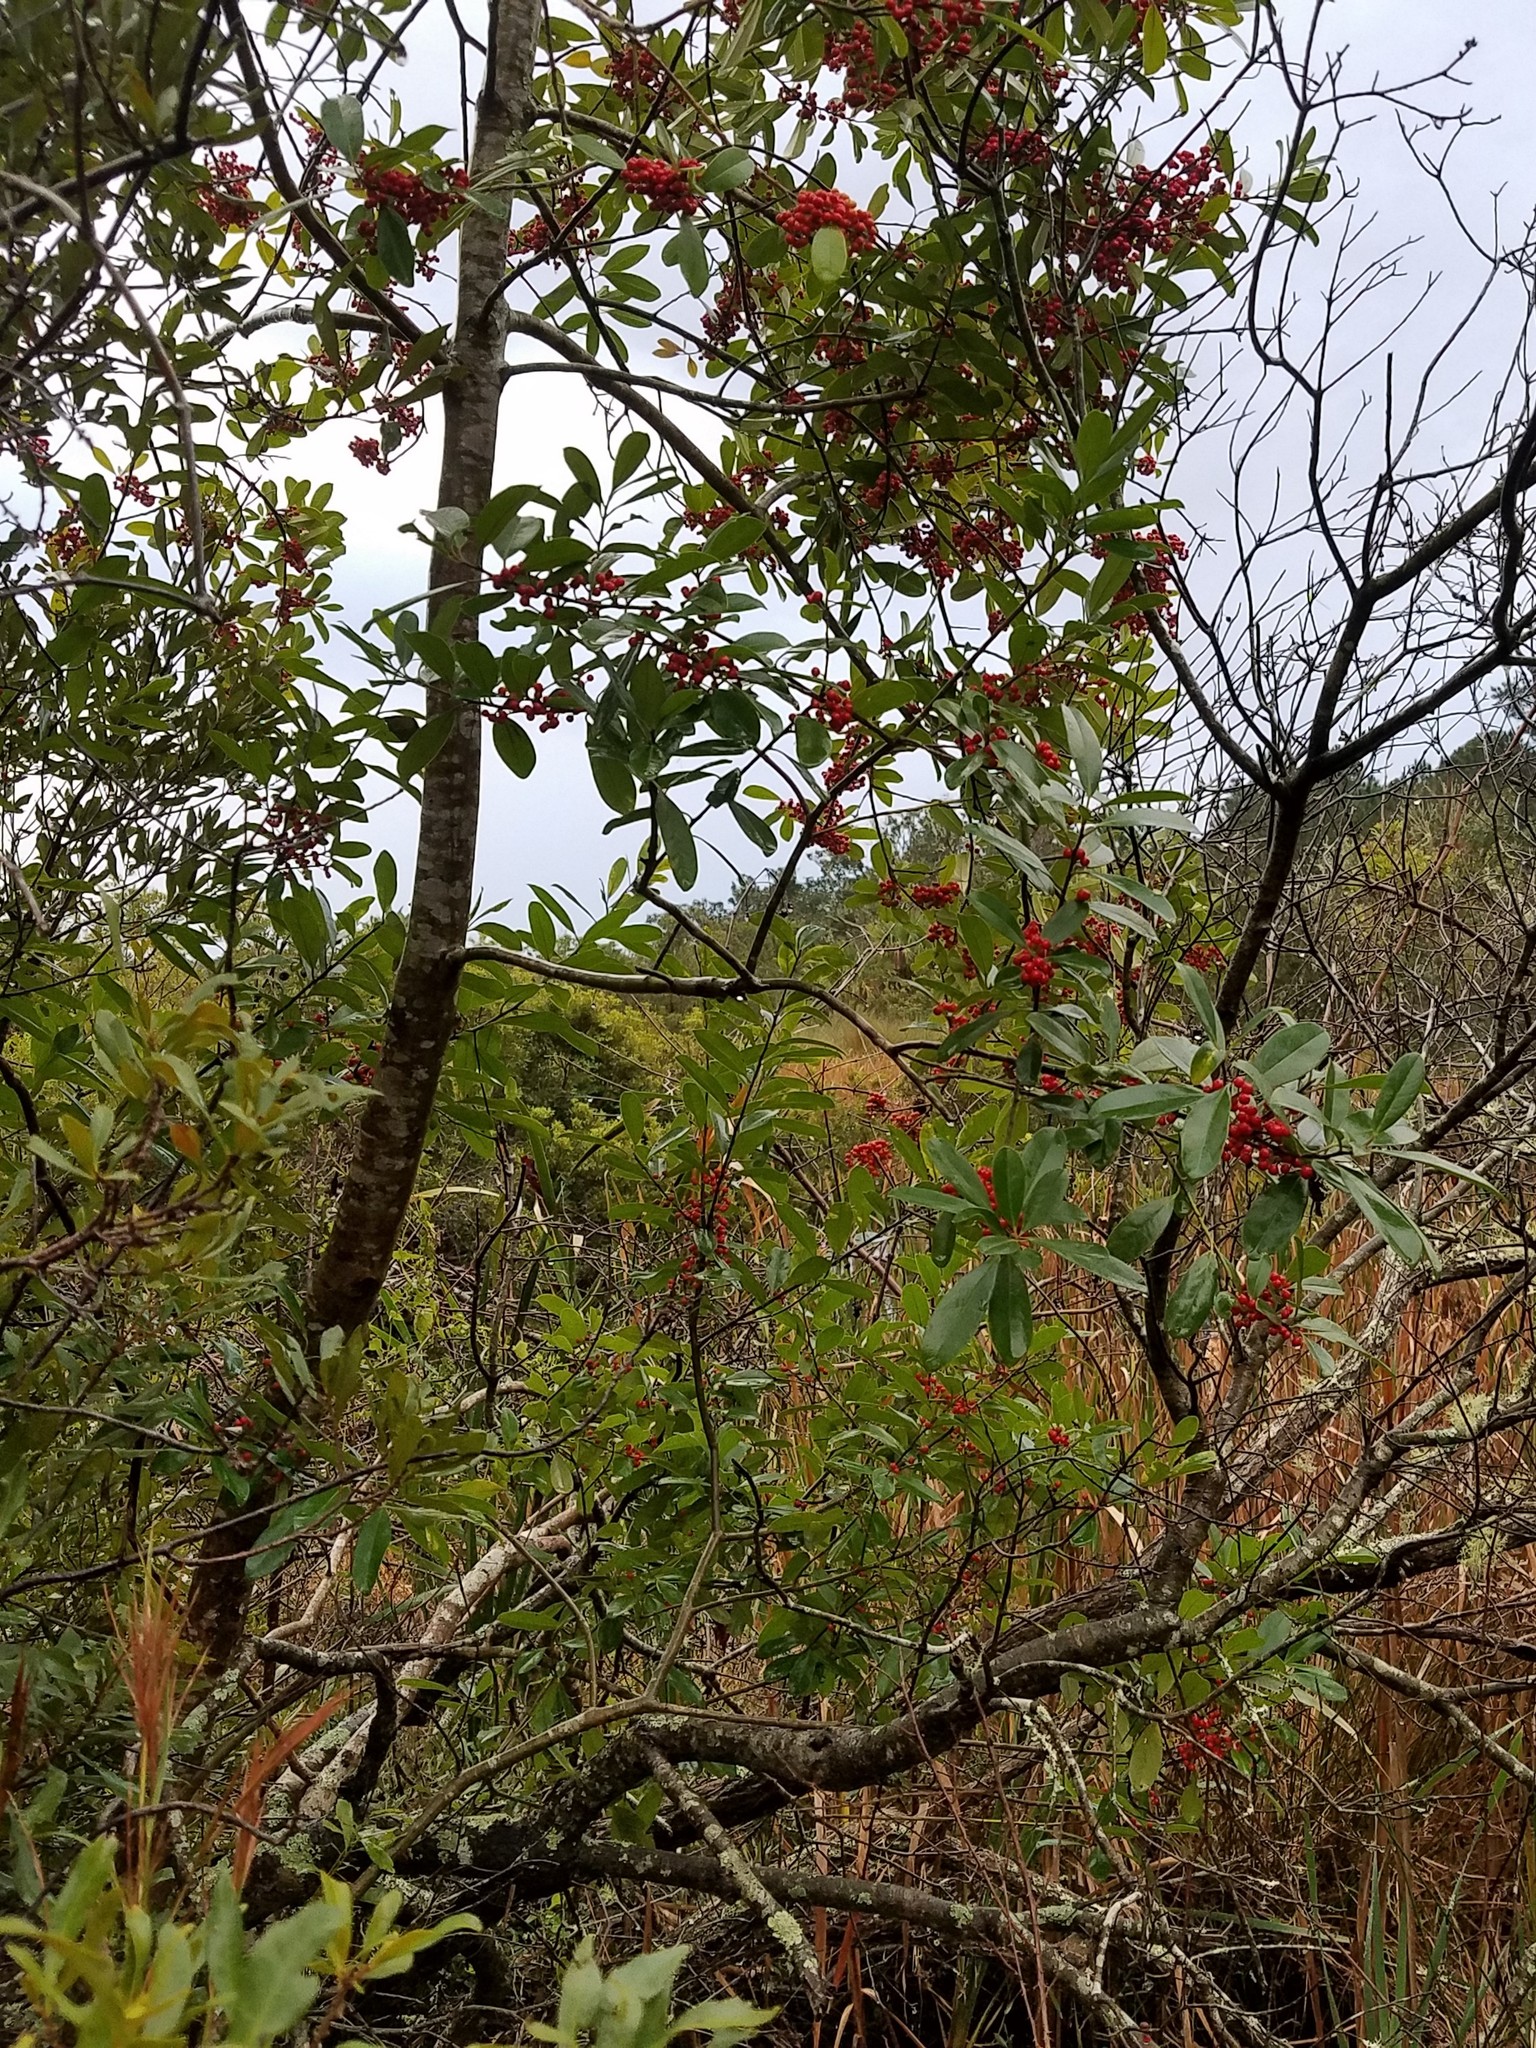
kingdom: Plantae
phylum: Tracheophyta
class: Magnoliopsida
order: Aquifoliales
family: Aquifoliaceae
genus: Ilex
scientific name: Ilex cassine
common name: Dahoon
